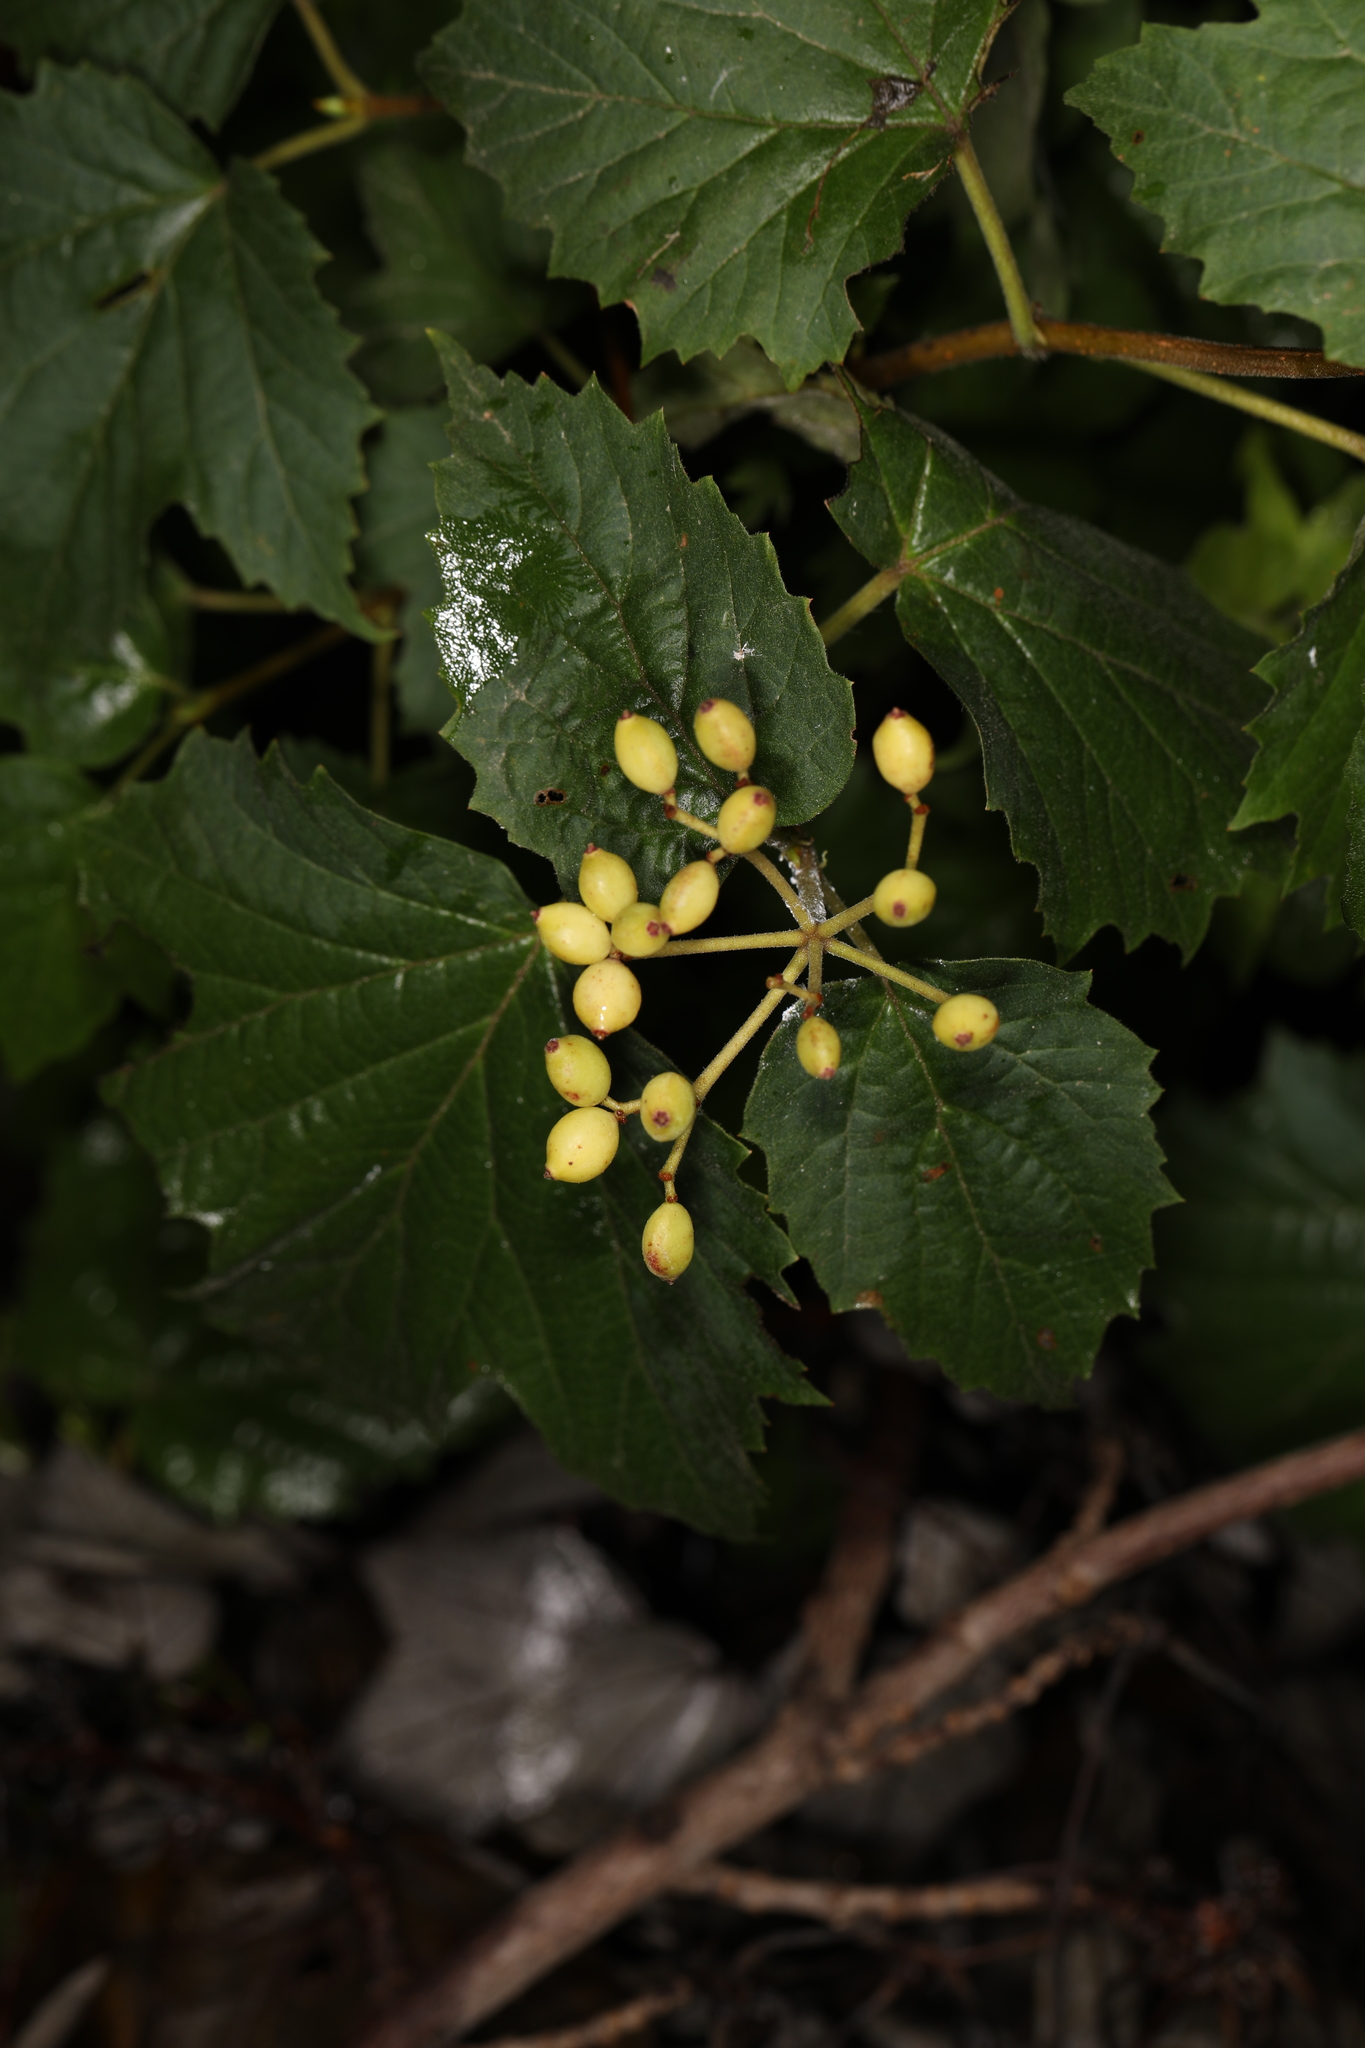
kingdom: Plantae
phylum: Tracheophyta
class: Magnoliopsida
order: Dipsacales
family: Viburnaceae
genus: Viburnum
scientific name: Viburnum acerifolium
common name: Dockmackie
